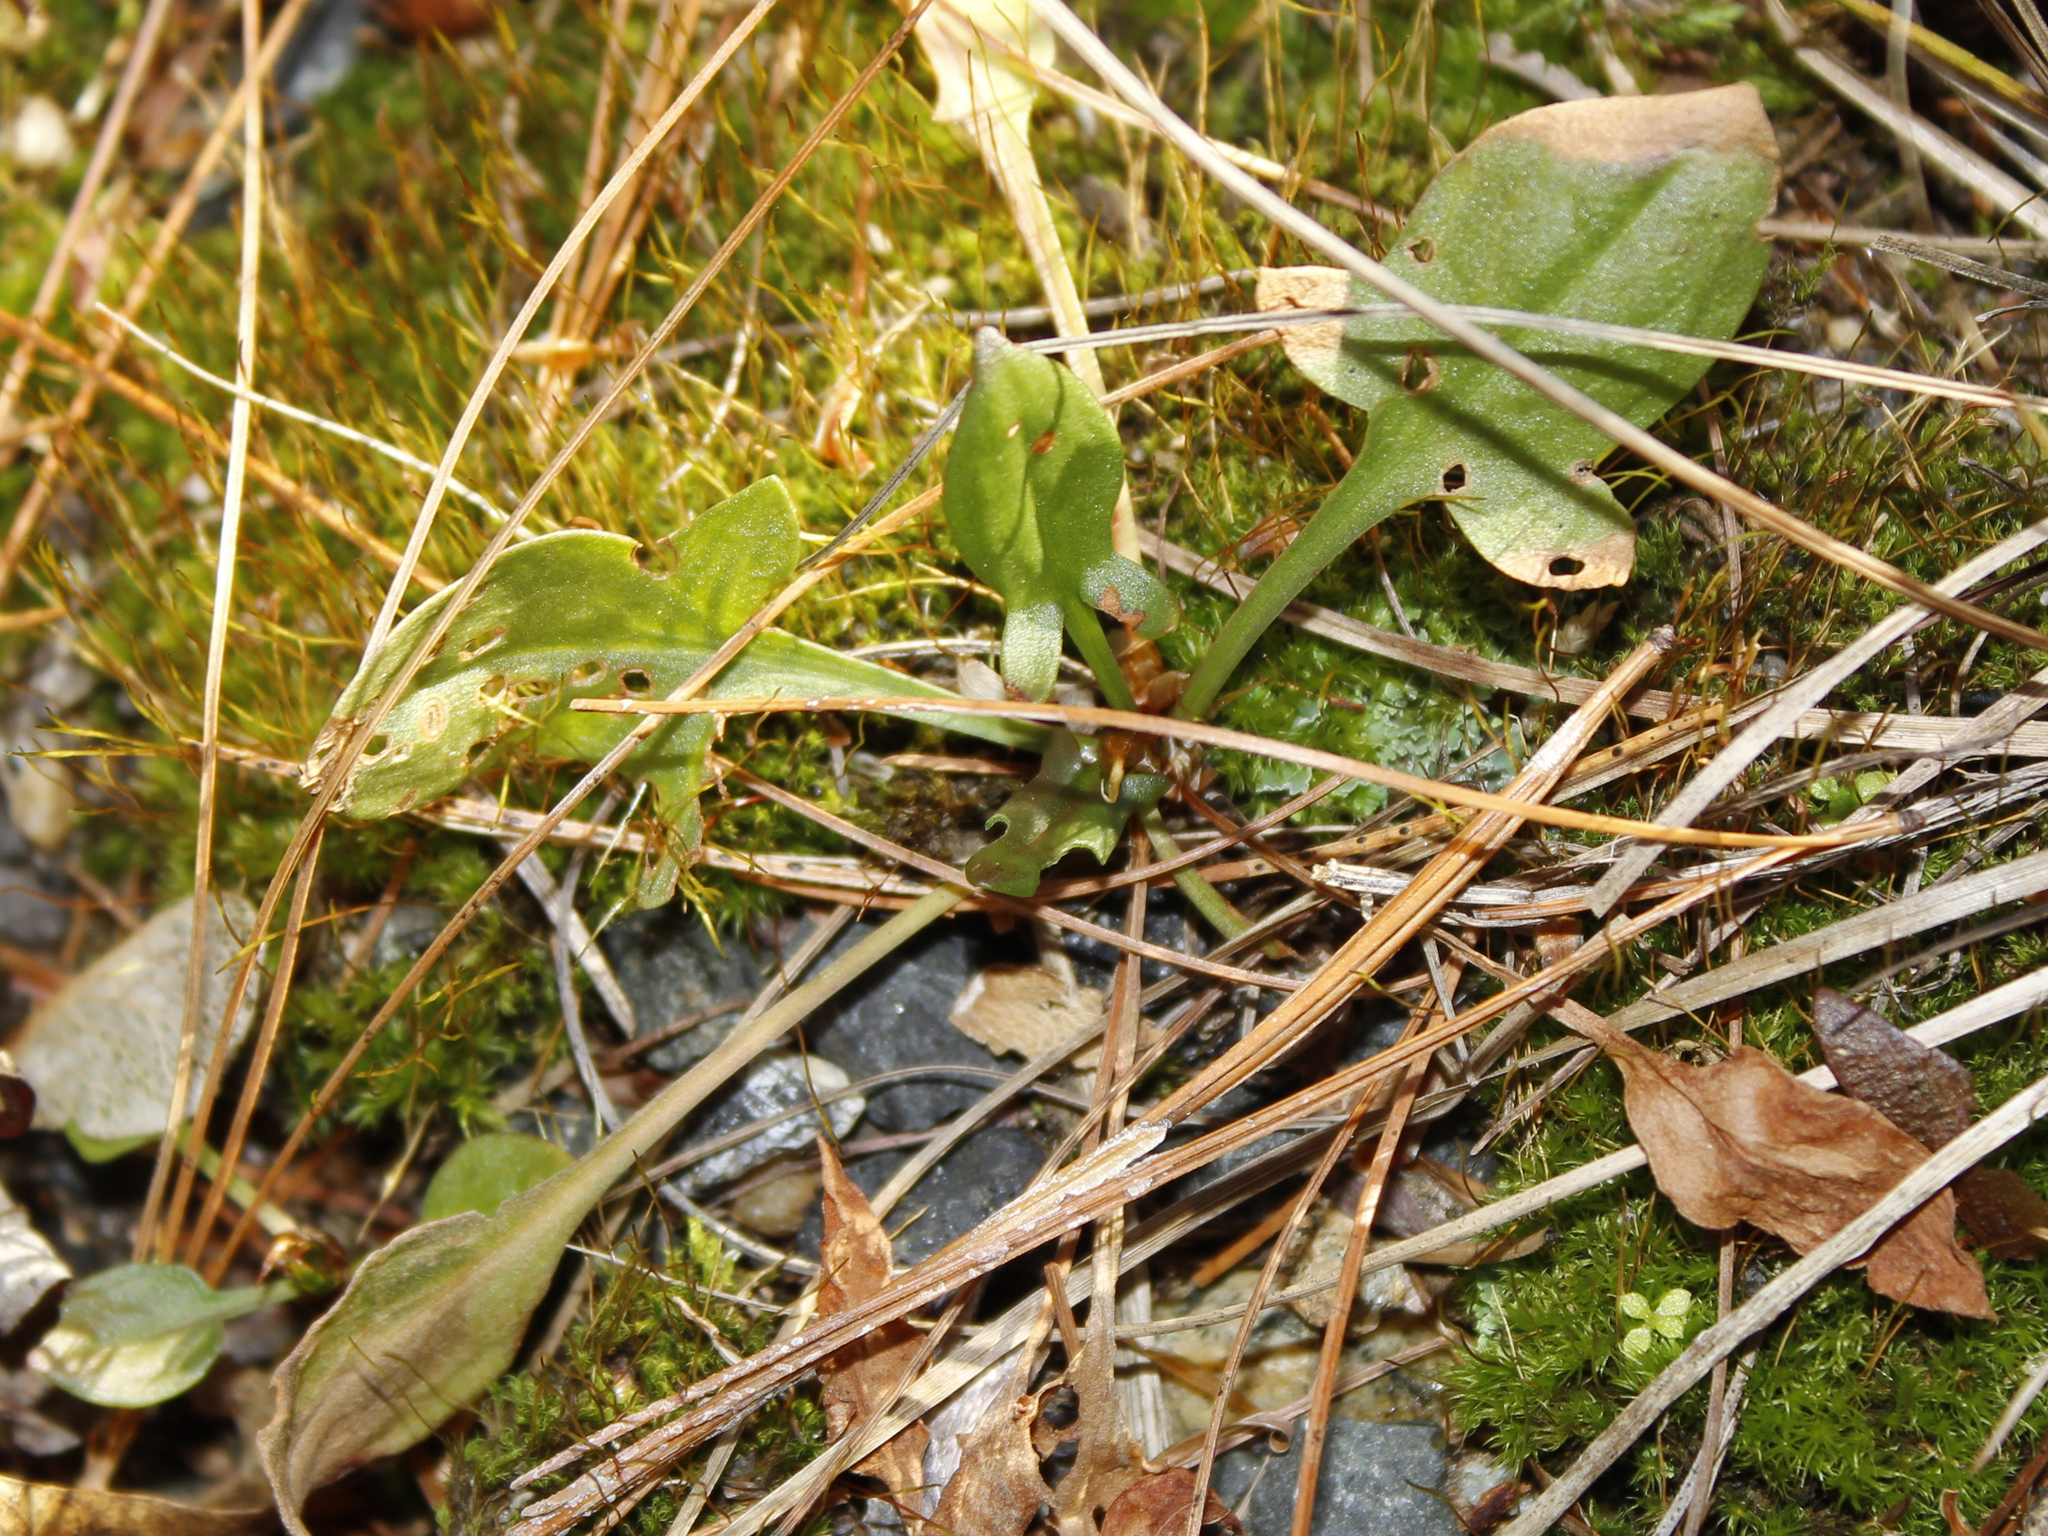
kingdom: Plantae
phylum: Tracheophyta
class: Magnoliopsida
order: Caryophyllales
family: Polygonaceae
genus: Rumex
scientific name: Rumex acetosella
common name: Common sheep sorrel
